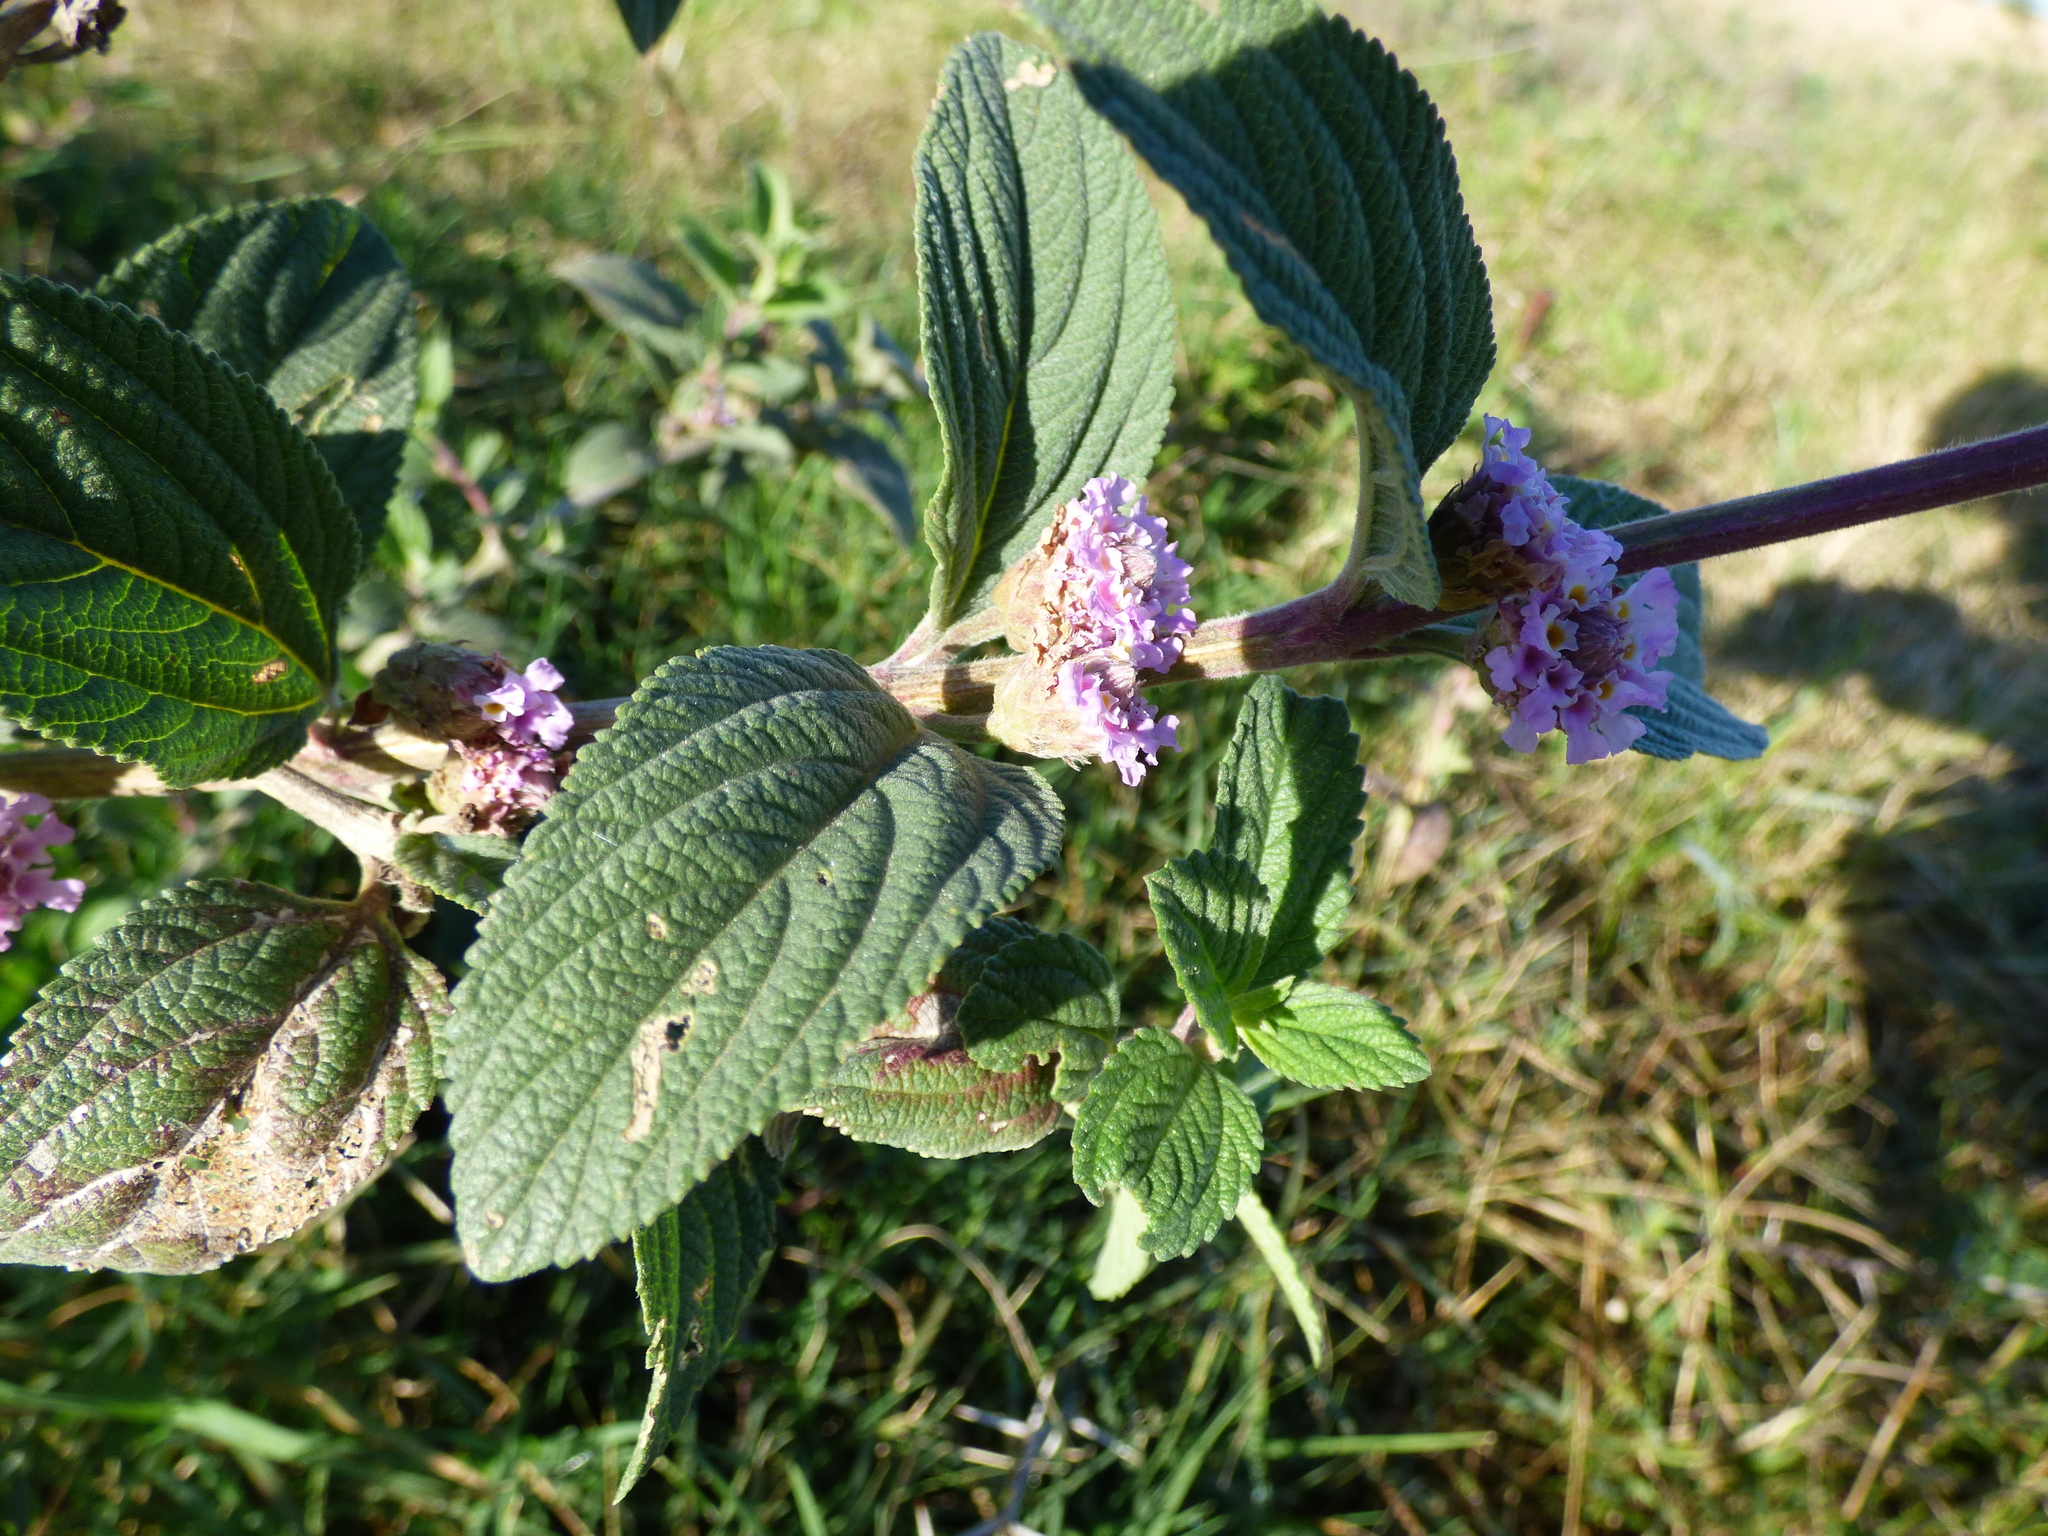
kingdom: Plantae
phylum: Tracheophyta
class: Magnoliopsida
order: Lamiales
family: Verbenaceae
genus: Lippia
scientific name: Lippia alba
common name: Bushy matgrass
